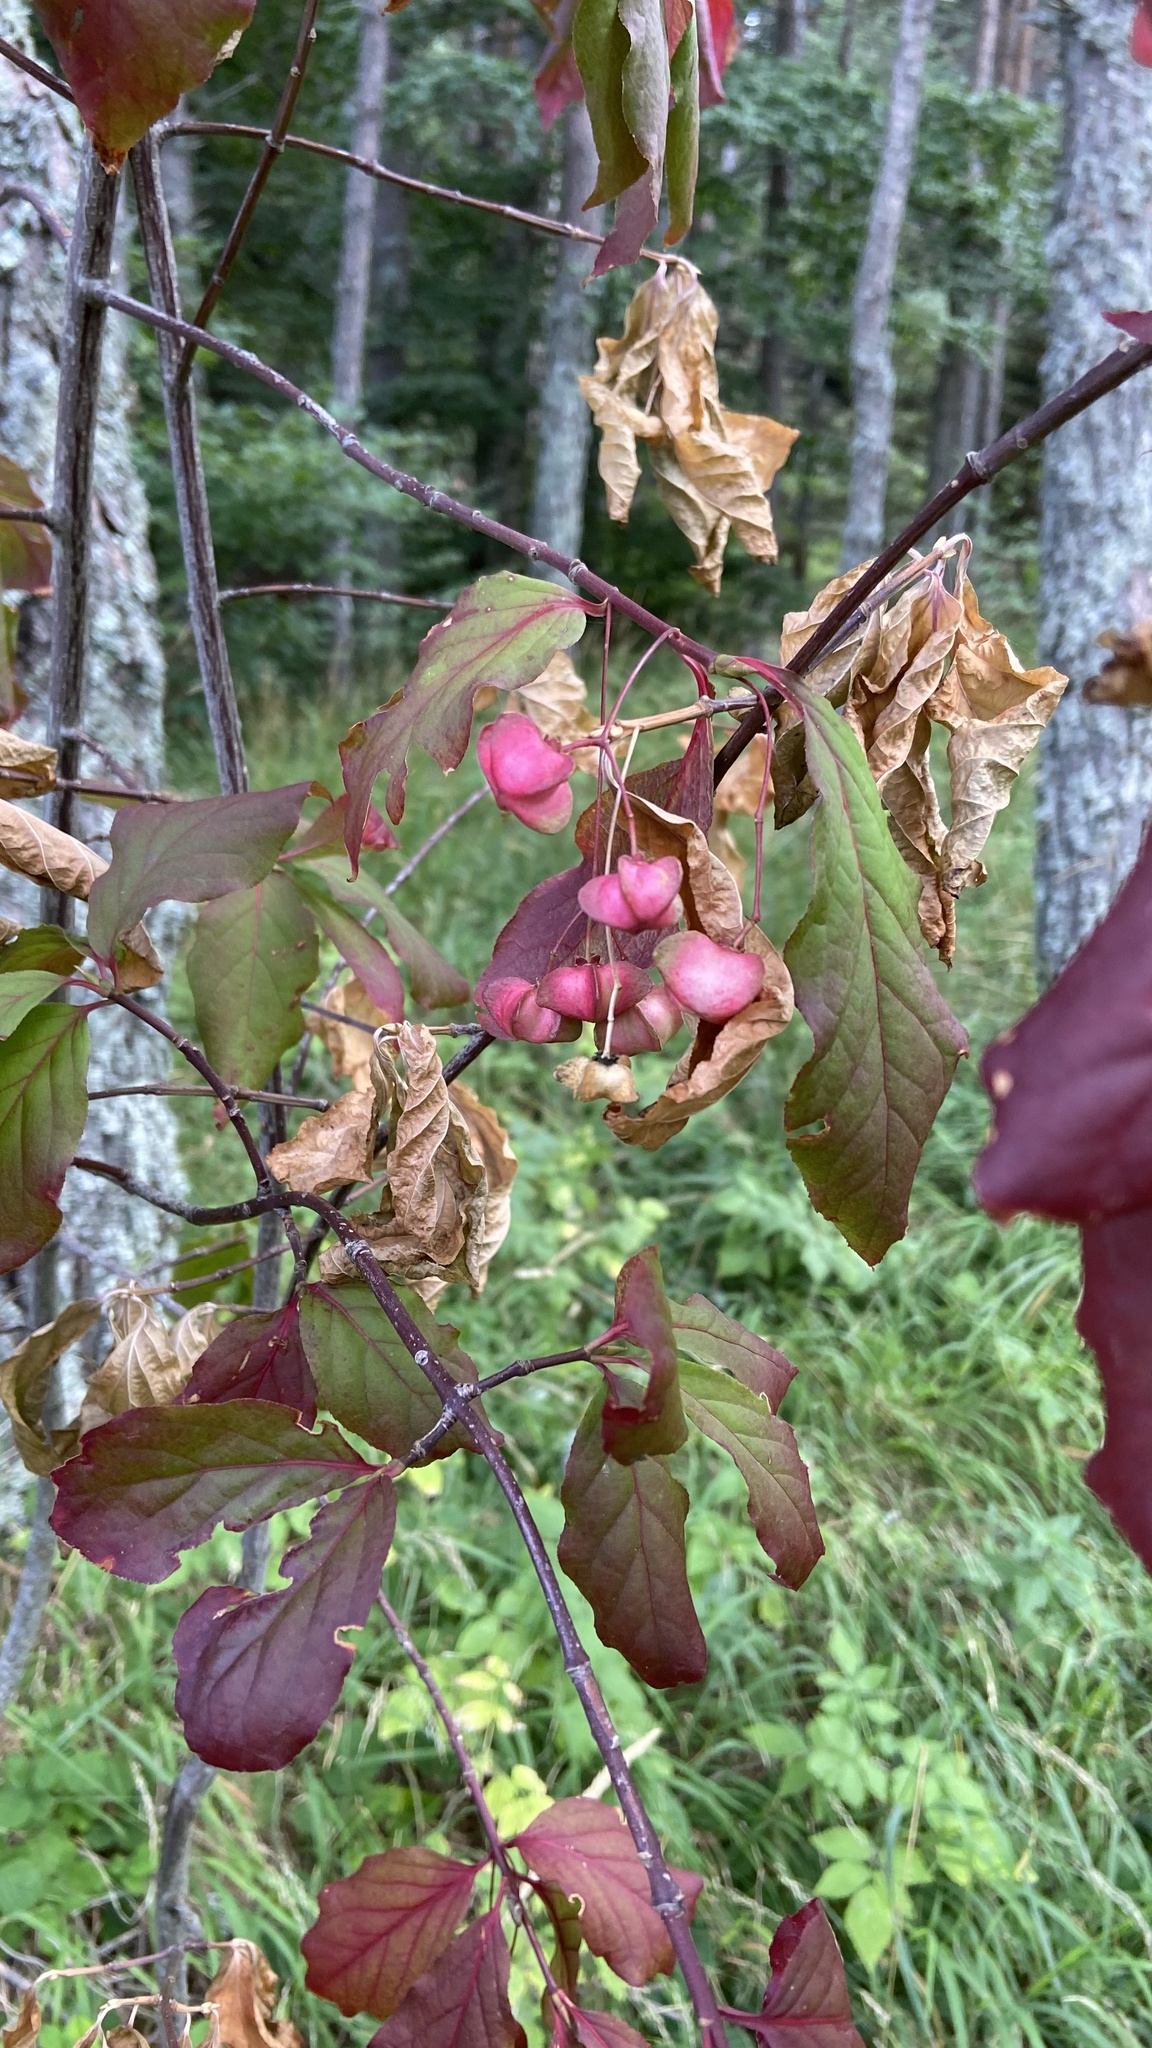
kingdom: Plantae
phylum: Tracheophyta
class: Magnoliopsida
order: Celastrales
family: Celastraceae
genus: Euonymus
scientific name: Euonymus latifolius
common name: Large-leaved spindle
